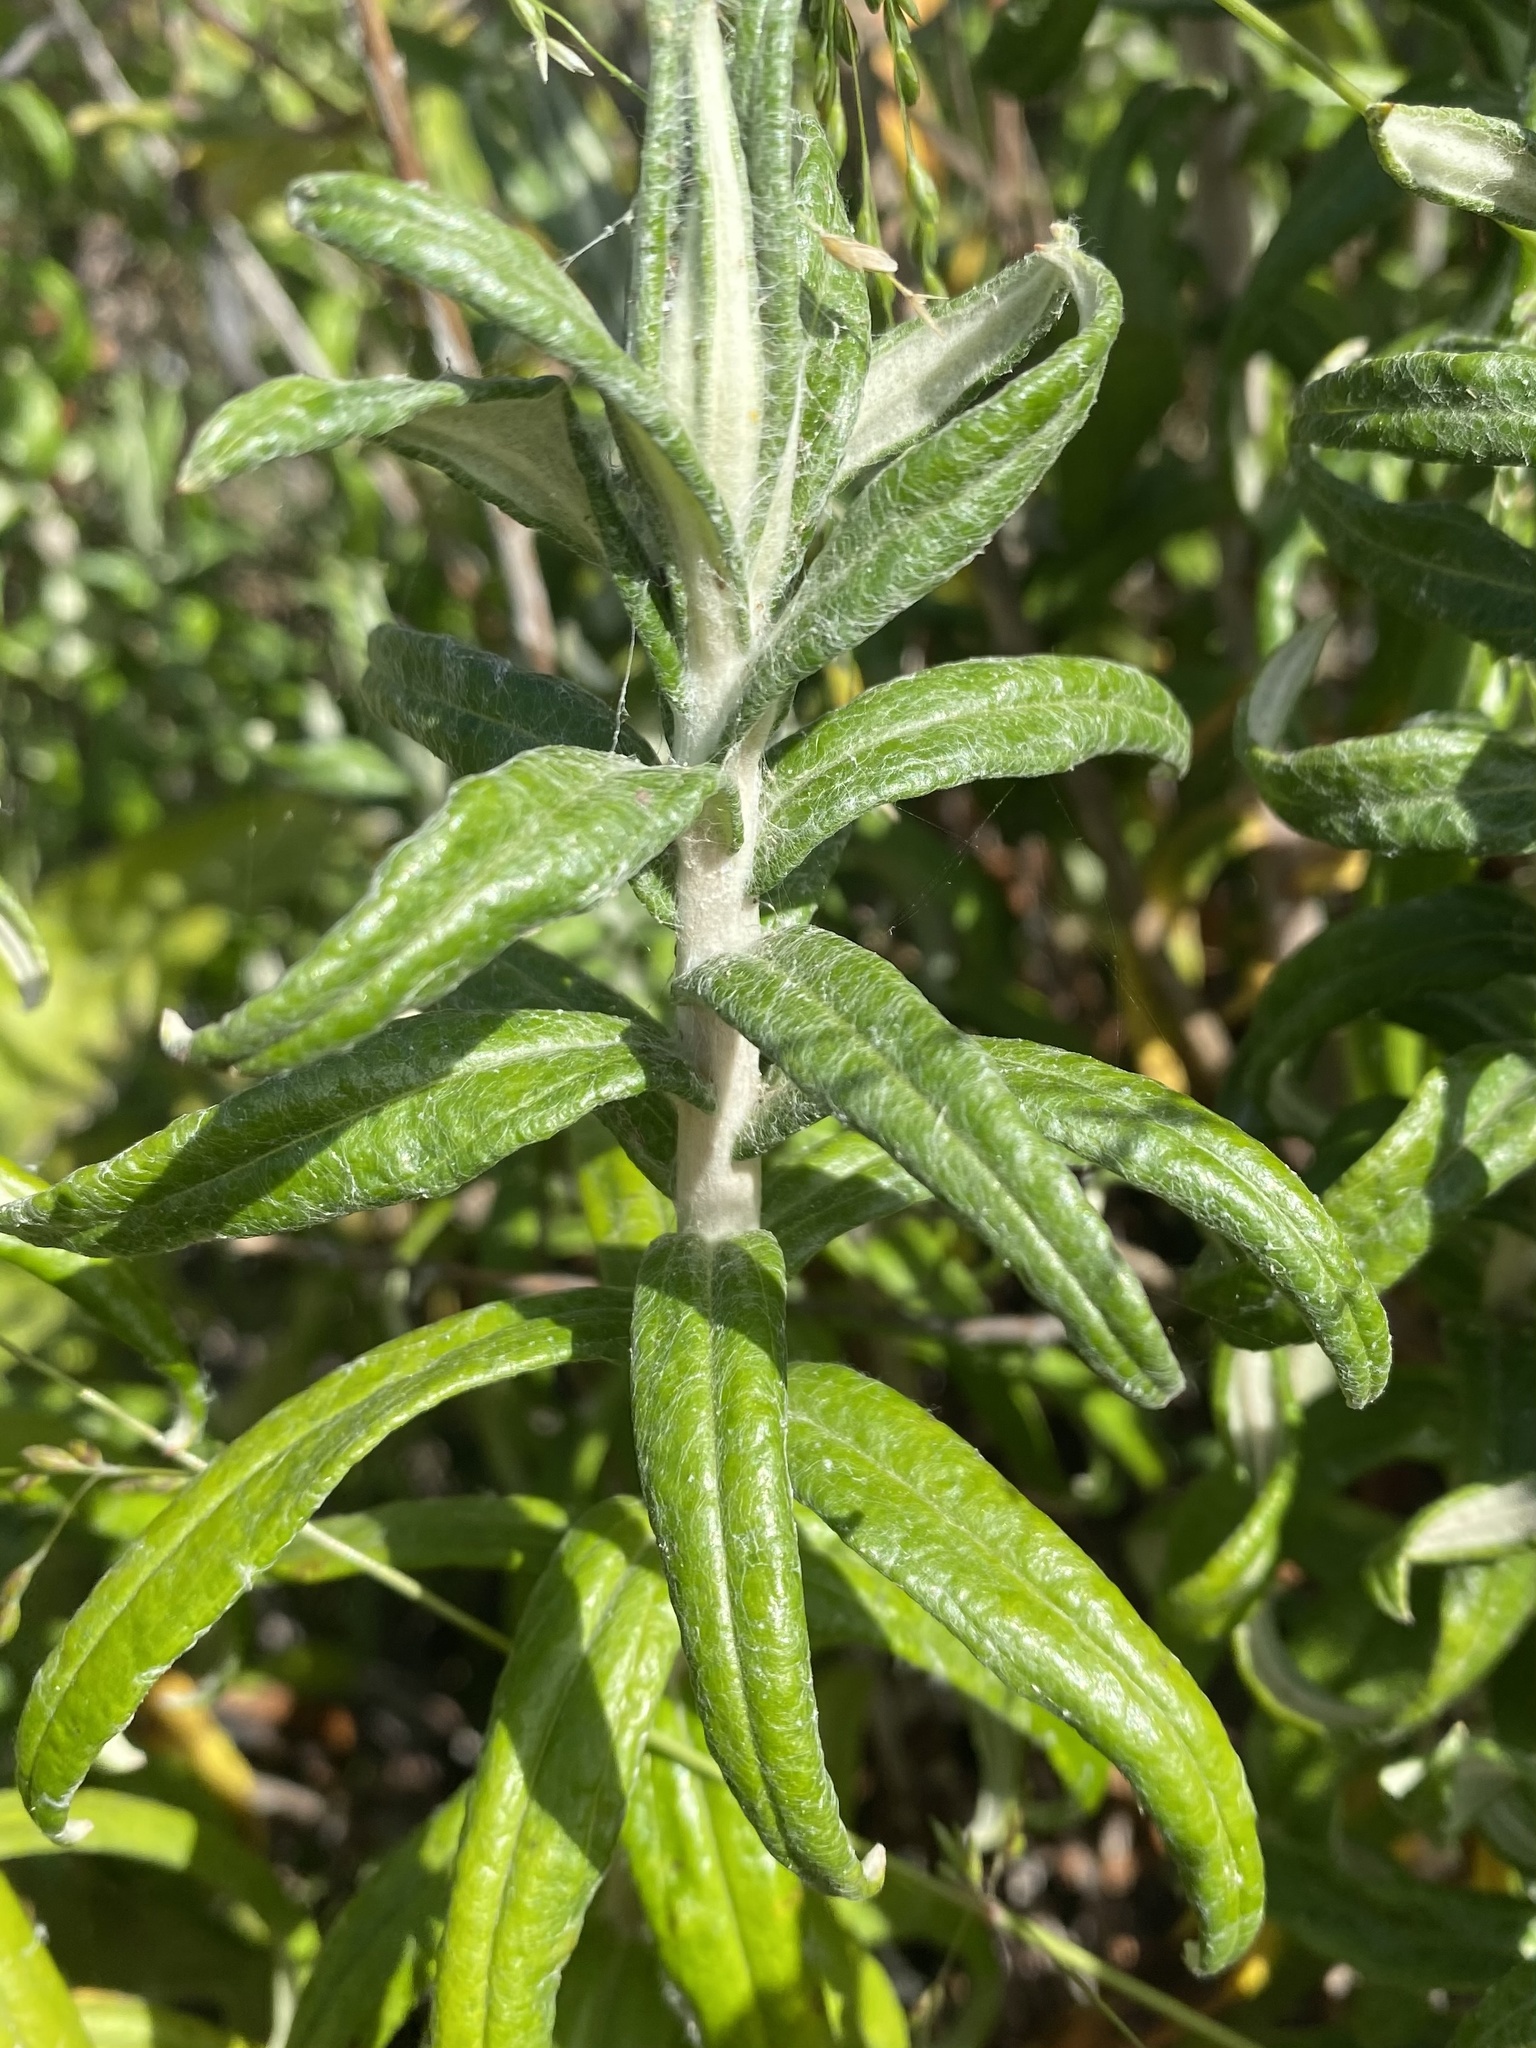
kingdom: Plantae
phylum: Tracheophyta
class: Magnoliopsida
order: Asterales
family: Asteraceae
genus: Anaphalis
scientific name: Anaphalis margaritacea
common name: Pearly everlasting
